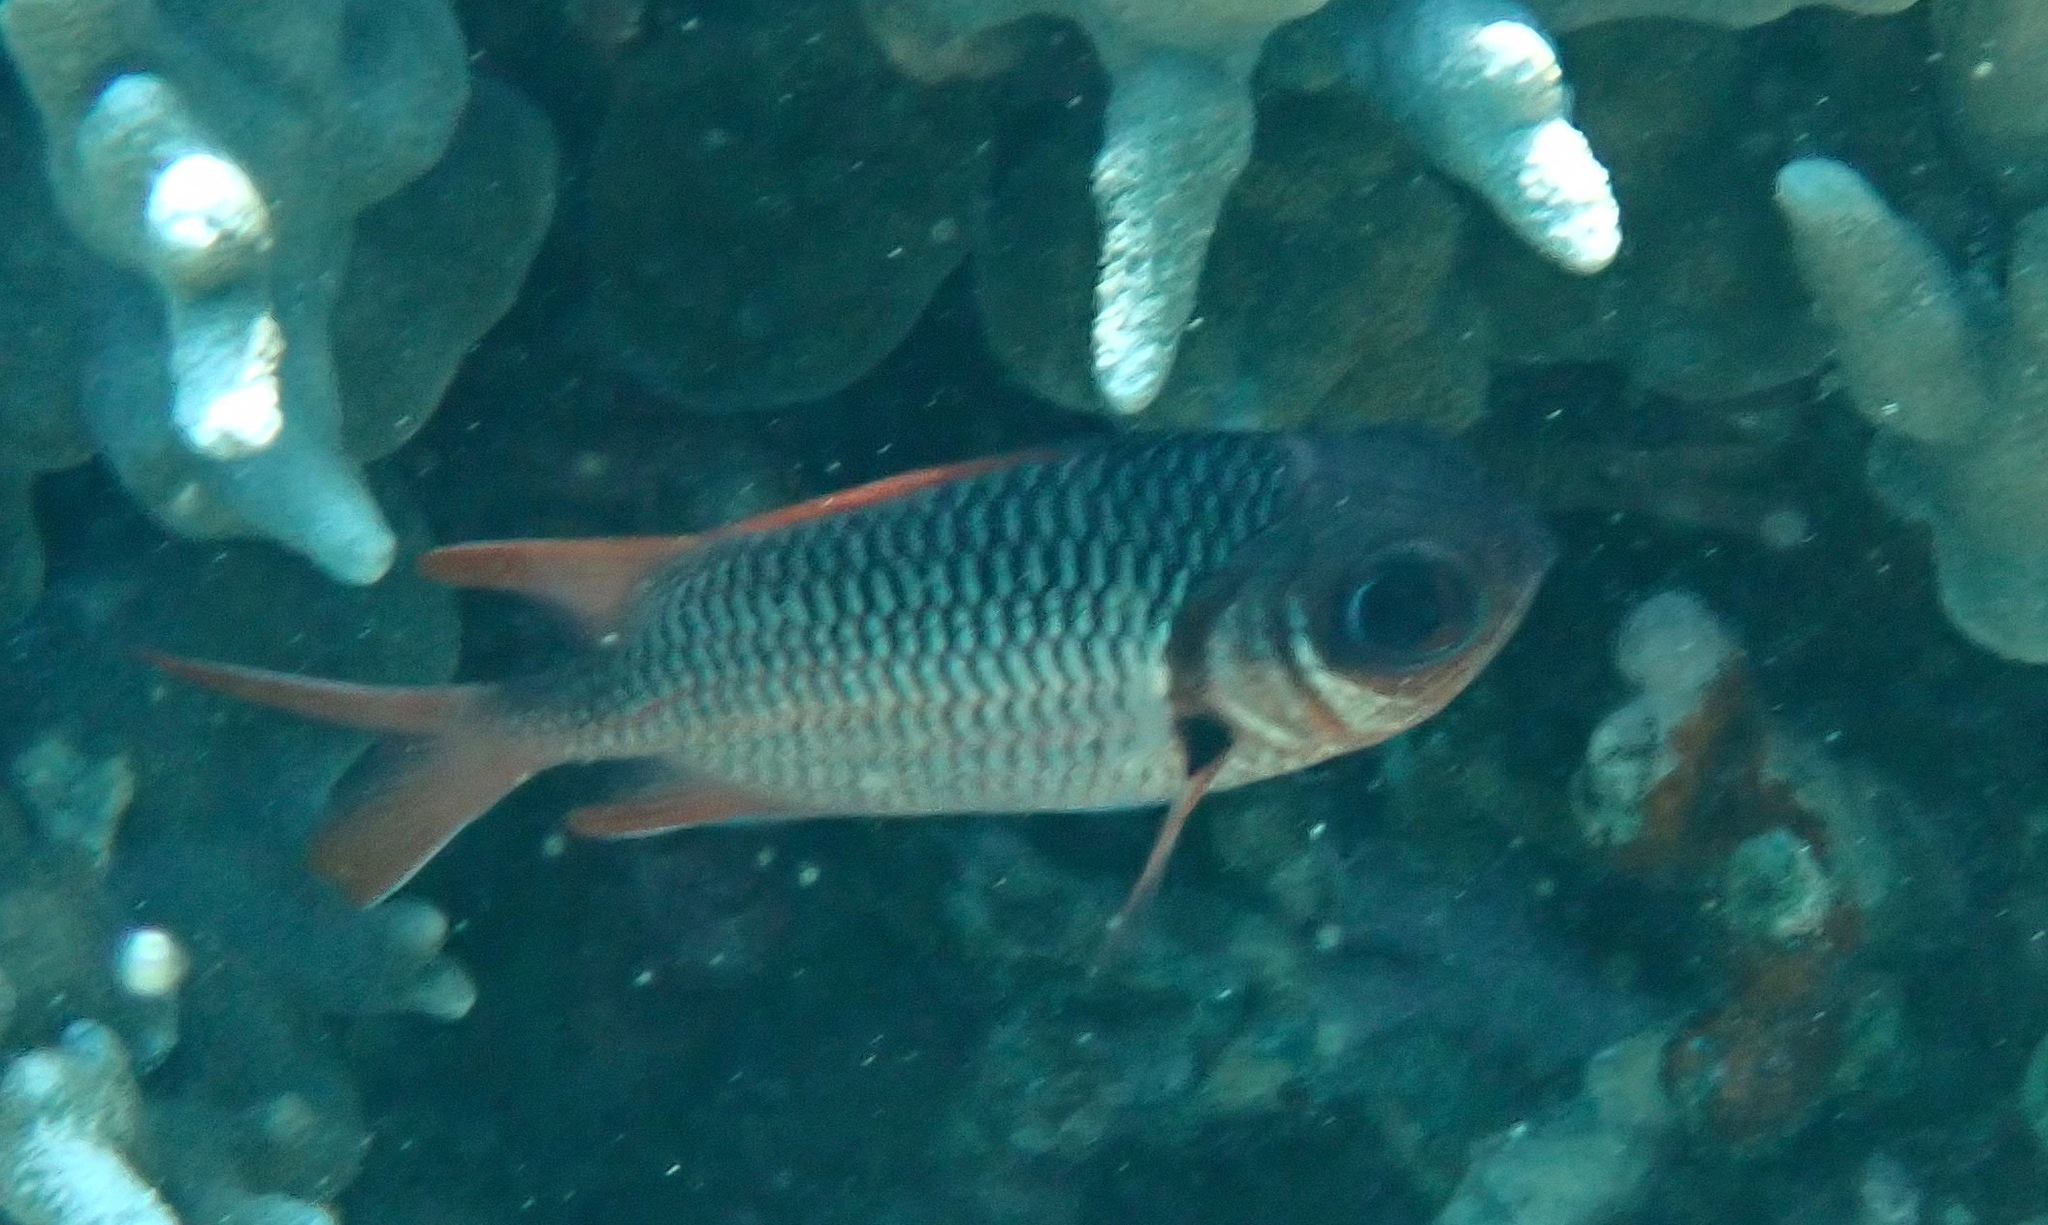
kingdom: Animalia
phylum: Chordata
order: Beryciformes
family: Holocentridae
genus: Myripristis
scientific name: Myripristis violacea
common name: Lattice soldierfish
